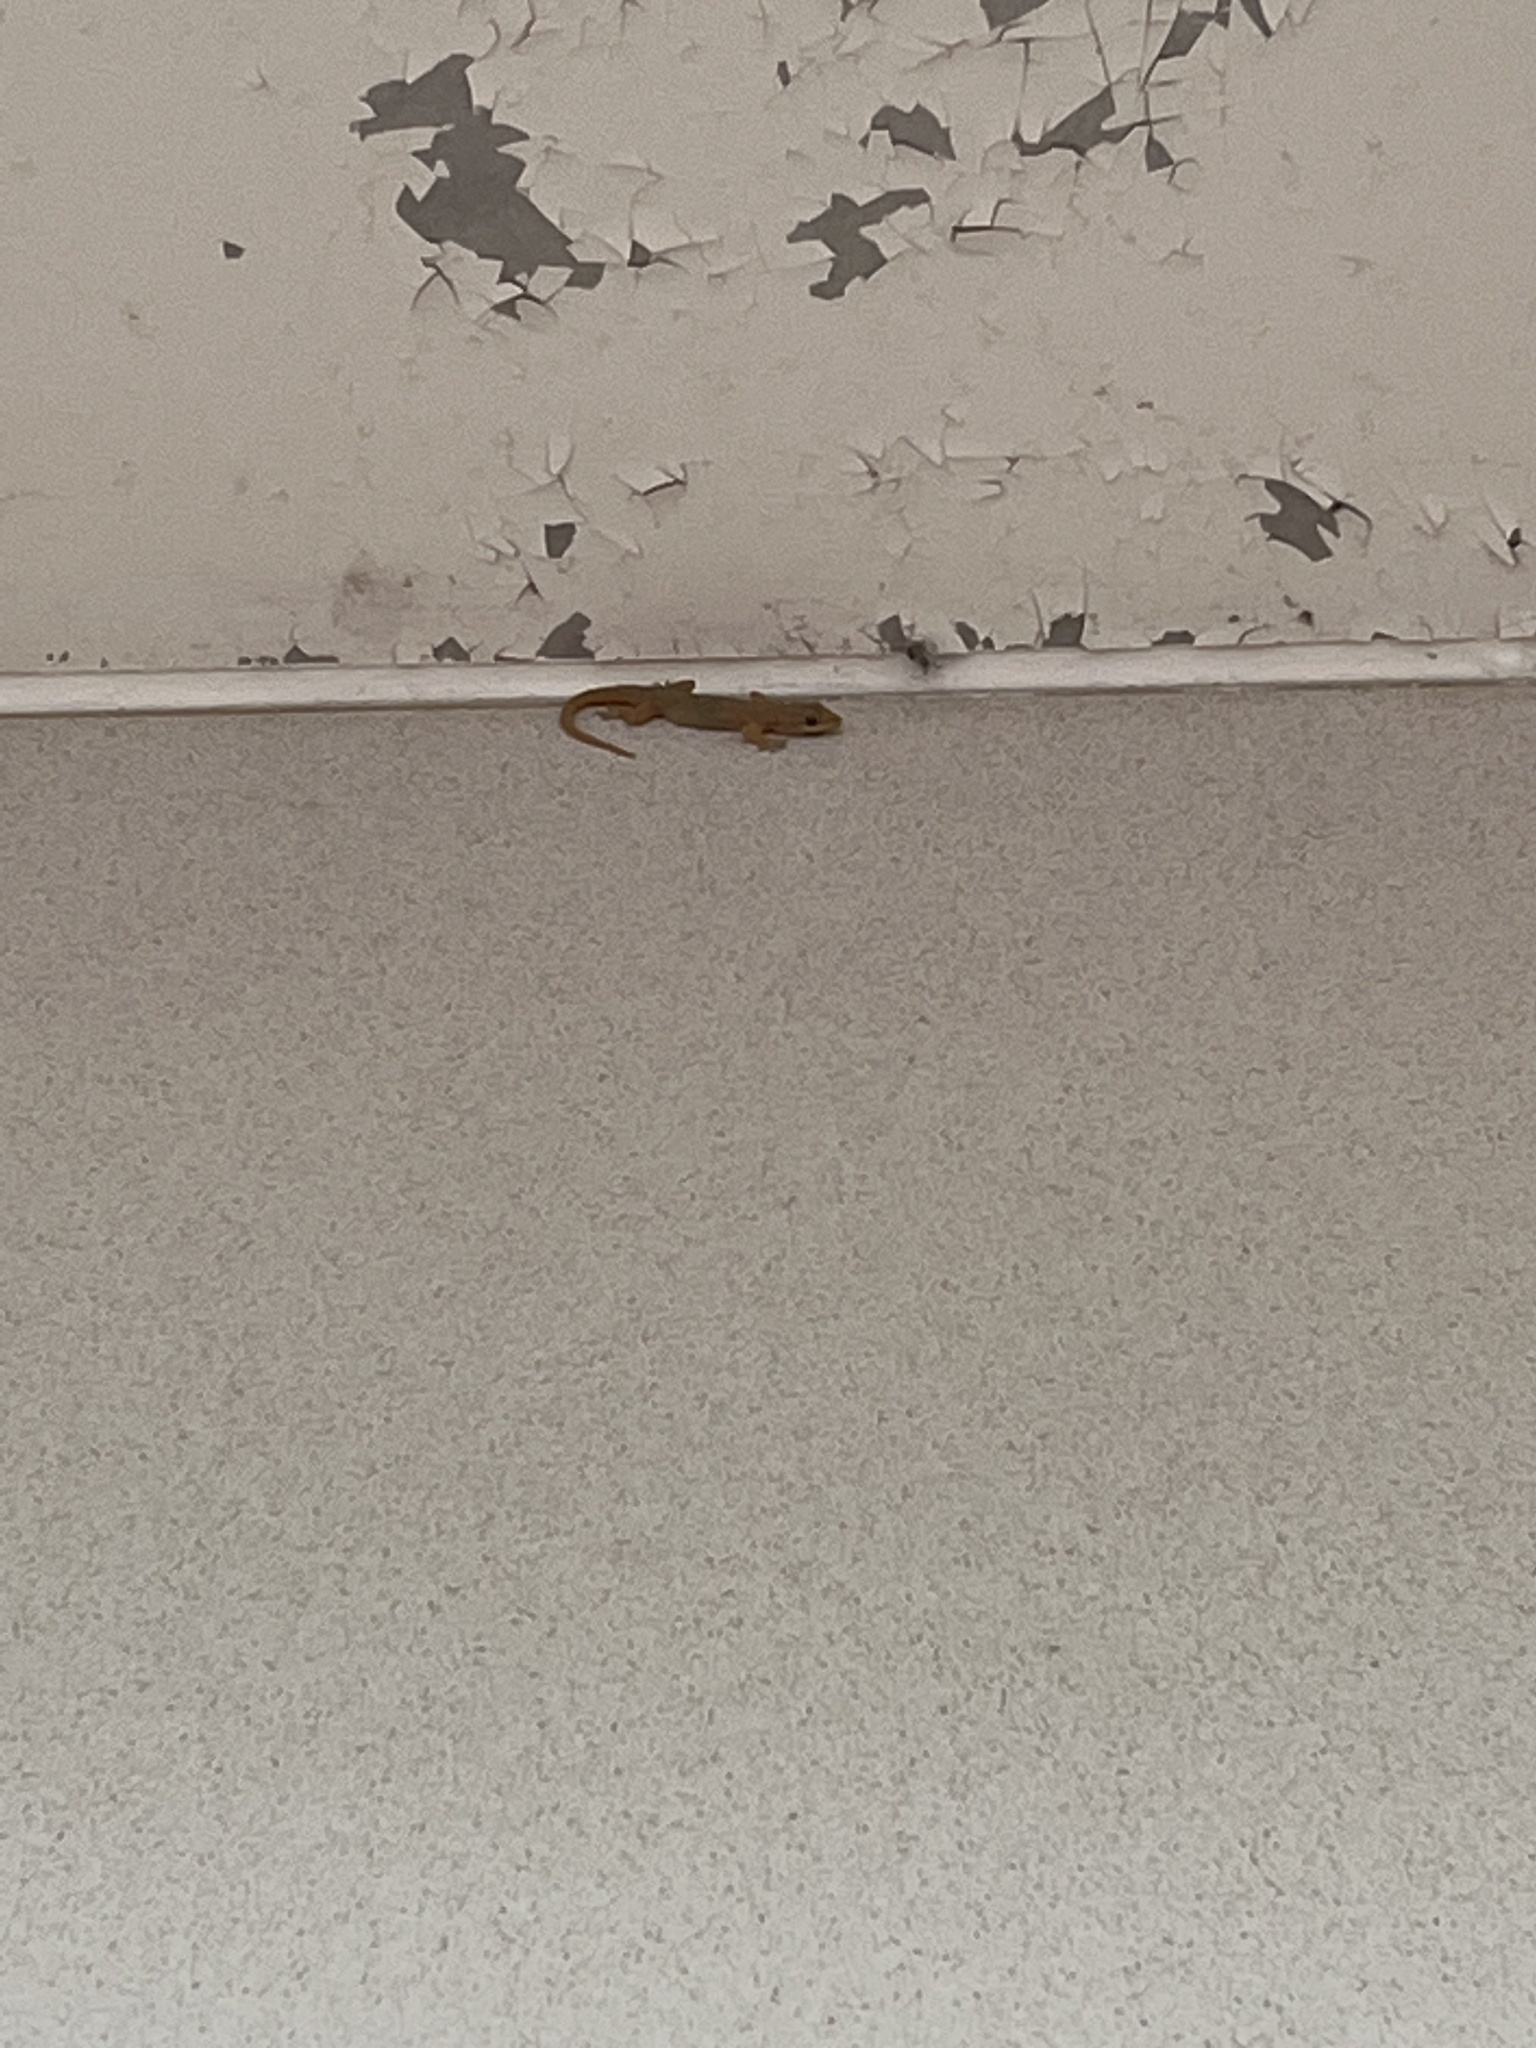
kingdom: Animalia
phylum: Chordata
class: Squamata
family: Gekkonidae
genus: Hemidactylus
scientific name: Hemidactylus bowringii
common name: Oriental leaf-toed gecko
